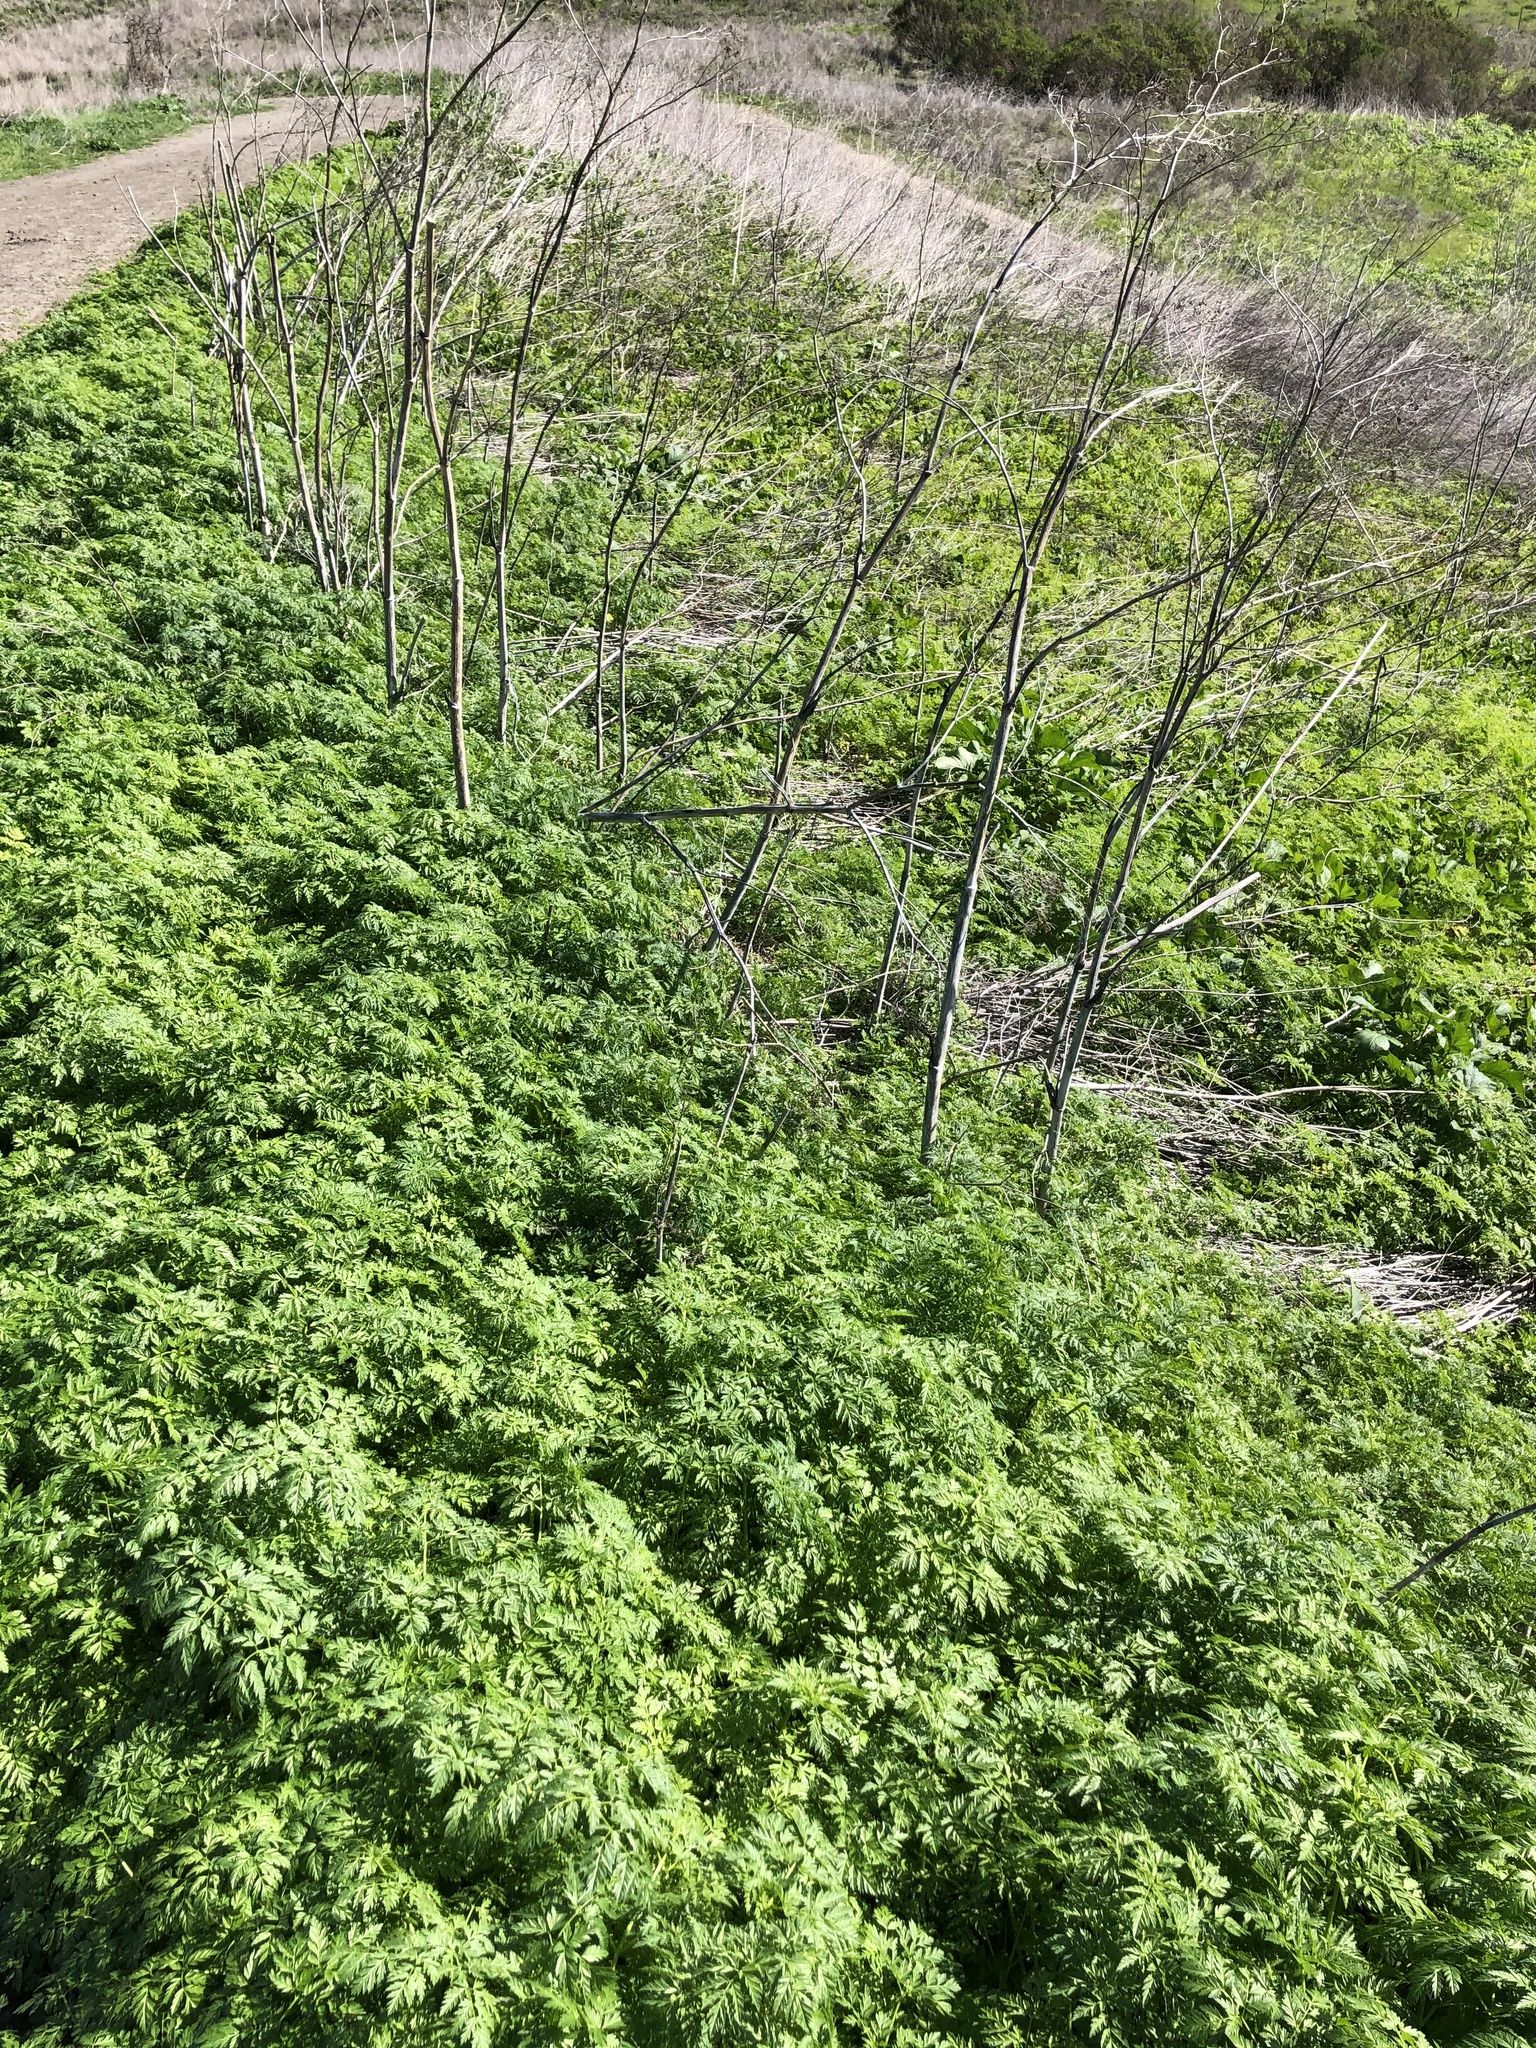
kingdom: Plantae
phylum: Tracheophyta
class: Magnoliopsida
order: Apiales
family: Apiaceae
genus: Conium
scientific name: Conium maculatum
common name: Hemlock
